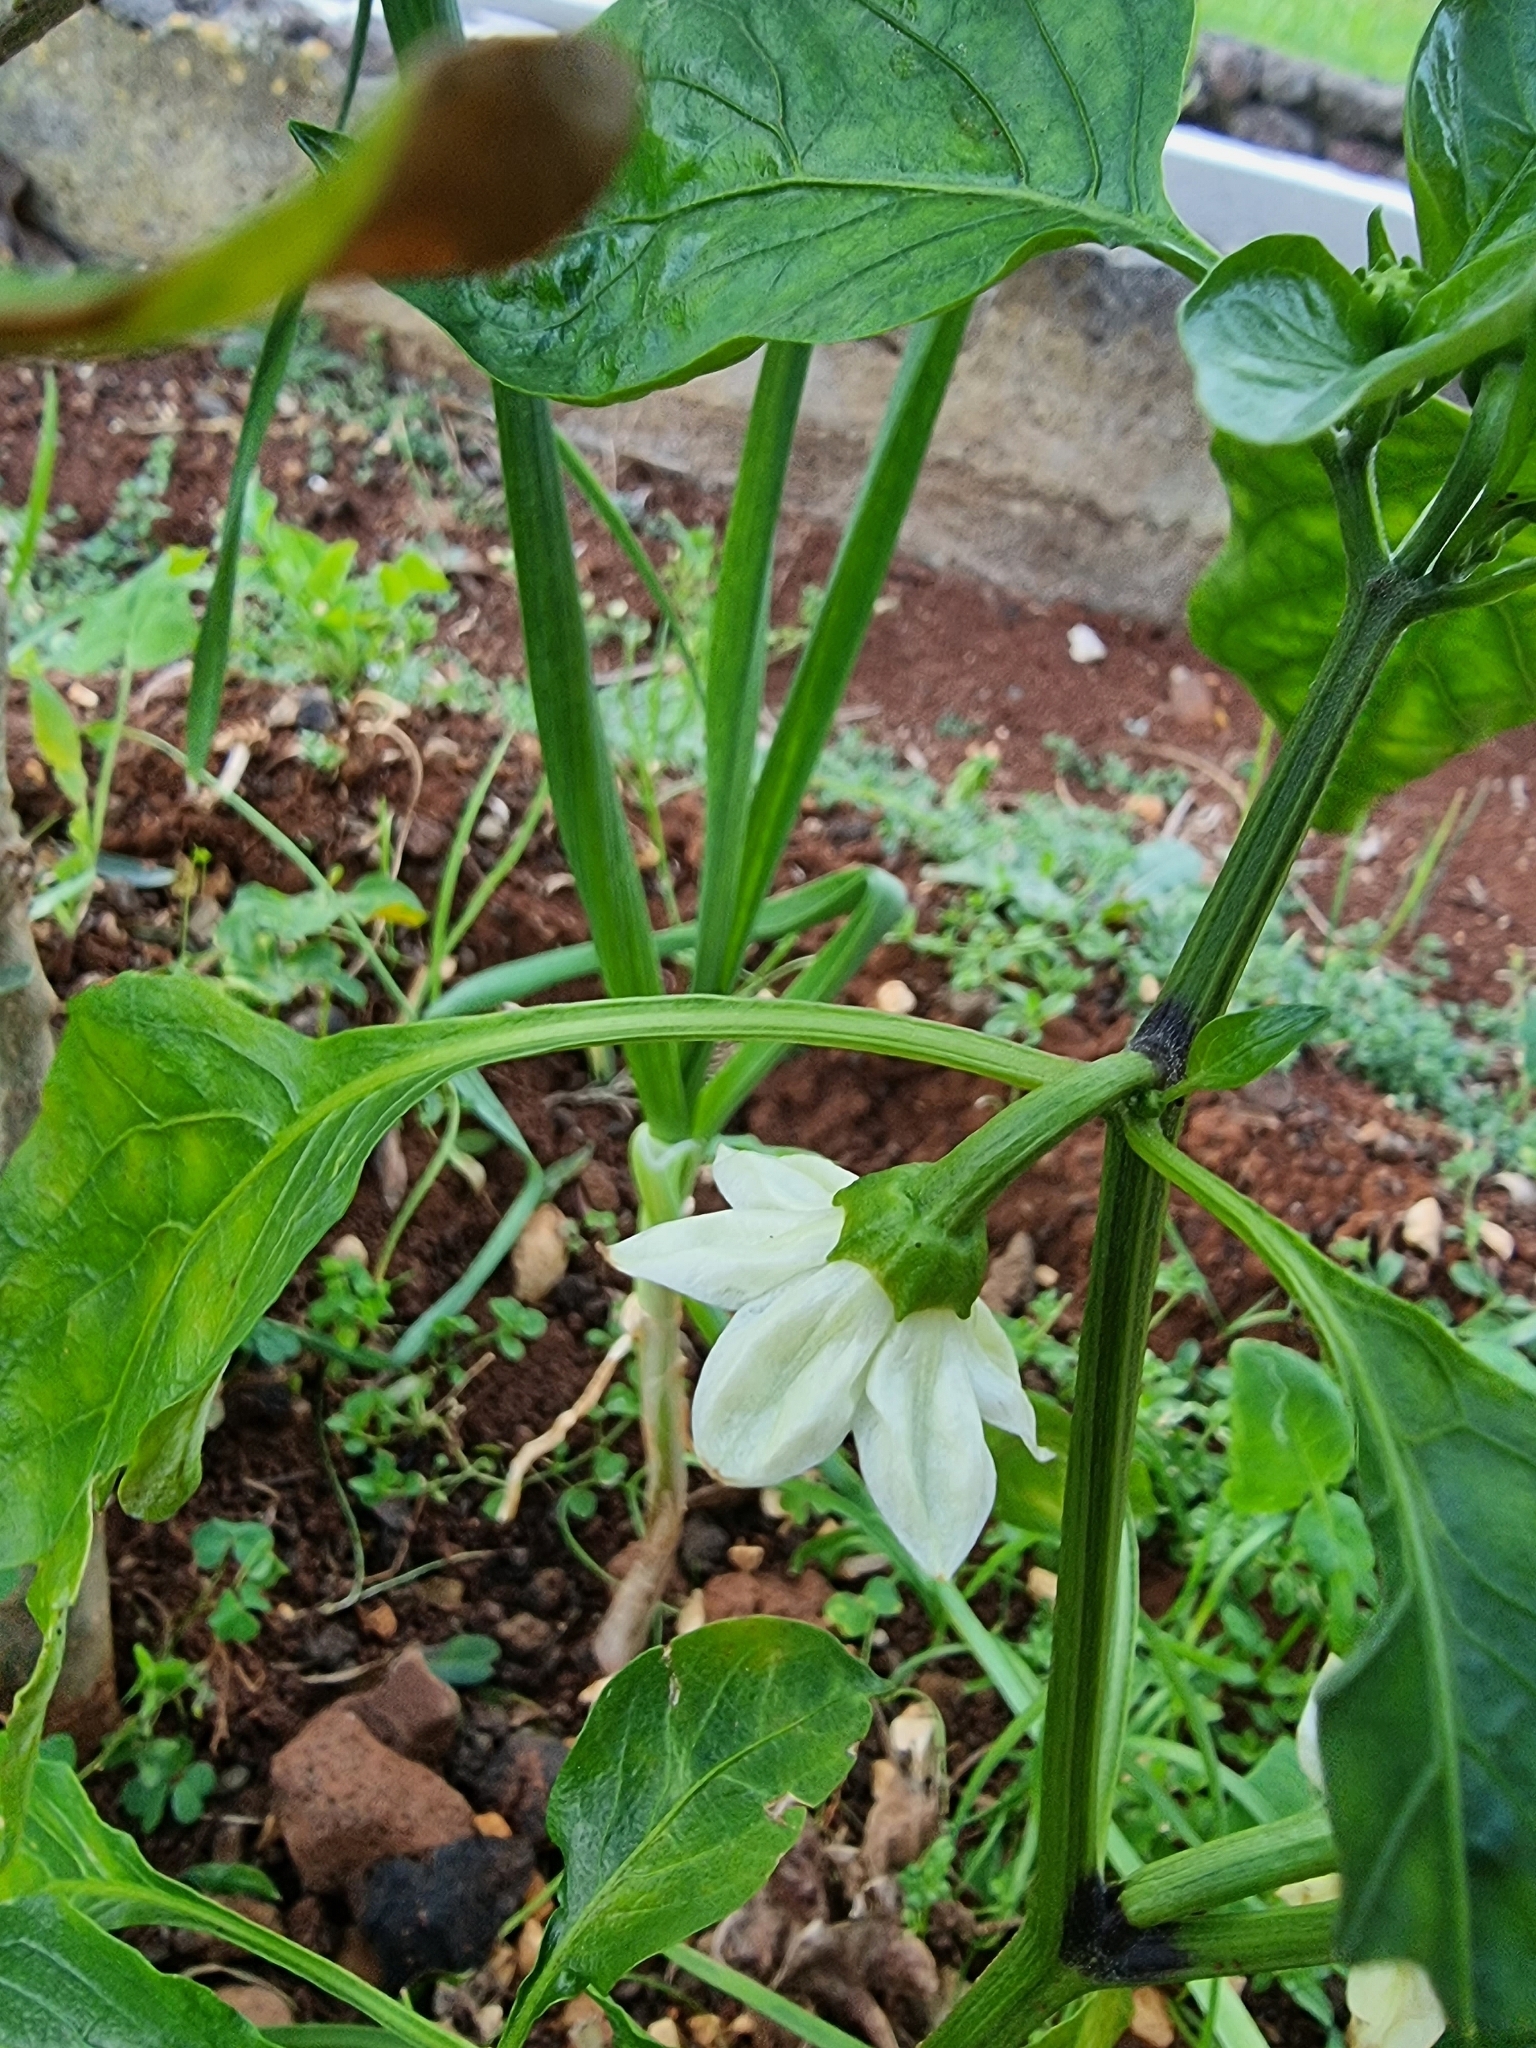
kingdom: Plantae
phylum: Tracheophyta
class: Magnoliopsida
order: Solanales
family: Solanaceae
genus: Capsicum
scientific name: Capsicum annuum
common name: Sweet pepper
